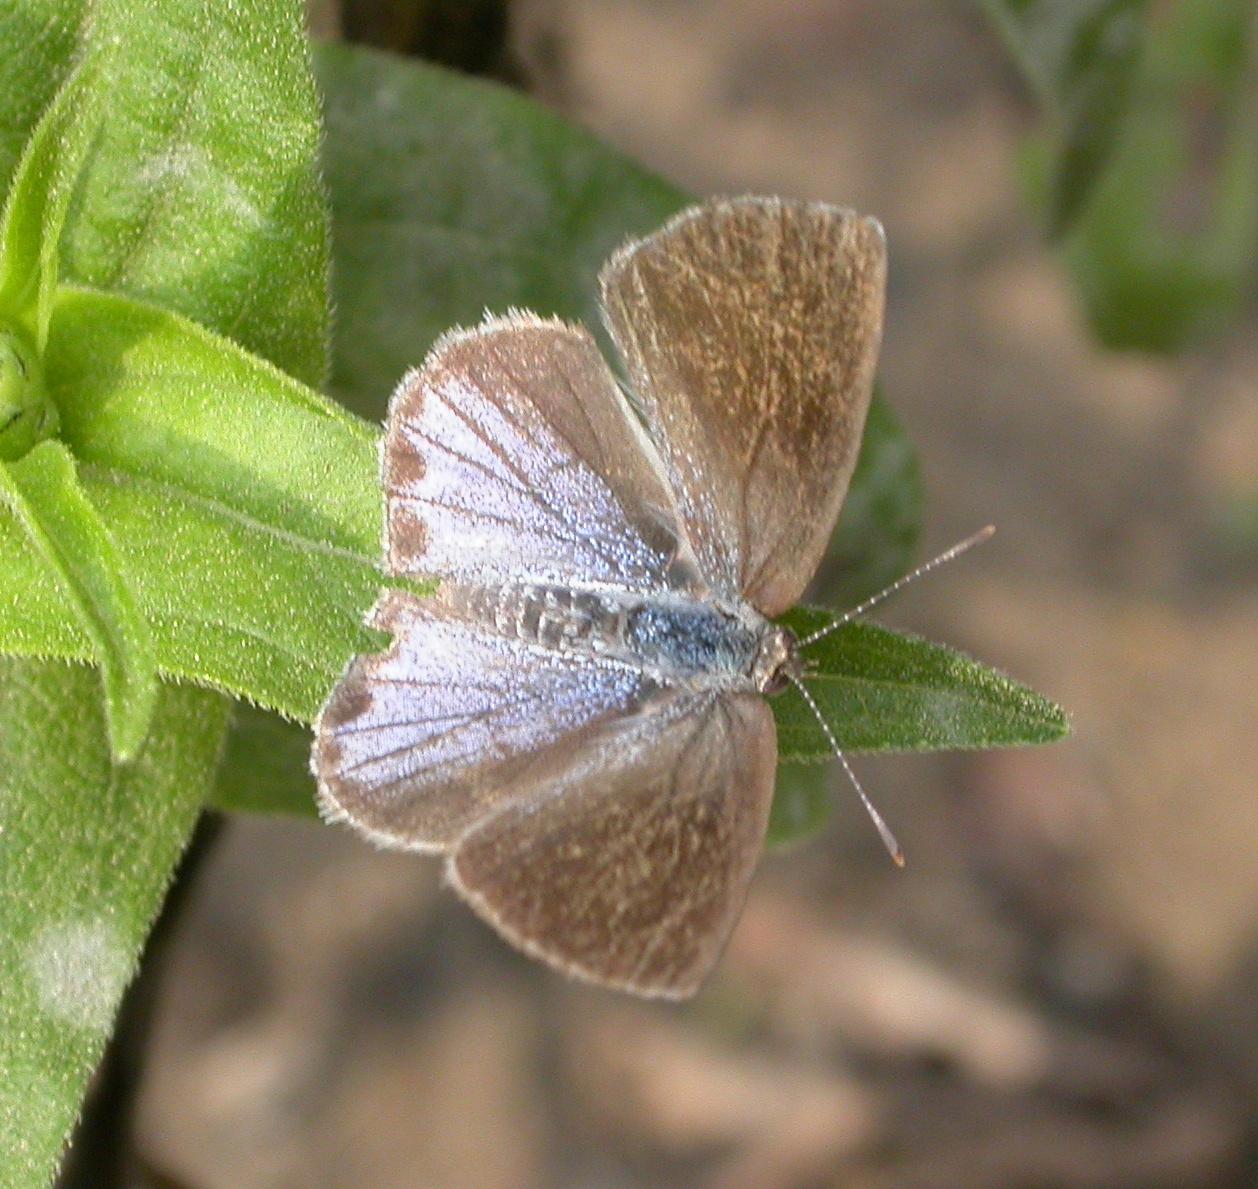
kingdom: Animalia
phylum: Arthropoda
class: Insecta
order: Lepidoptera
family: Lycaenidae
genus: Strymon
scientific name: Strymon bazochii
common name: Lantana scrub-hairstreak
